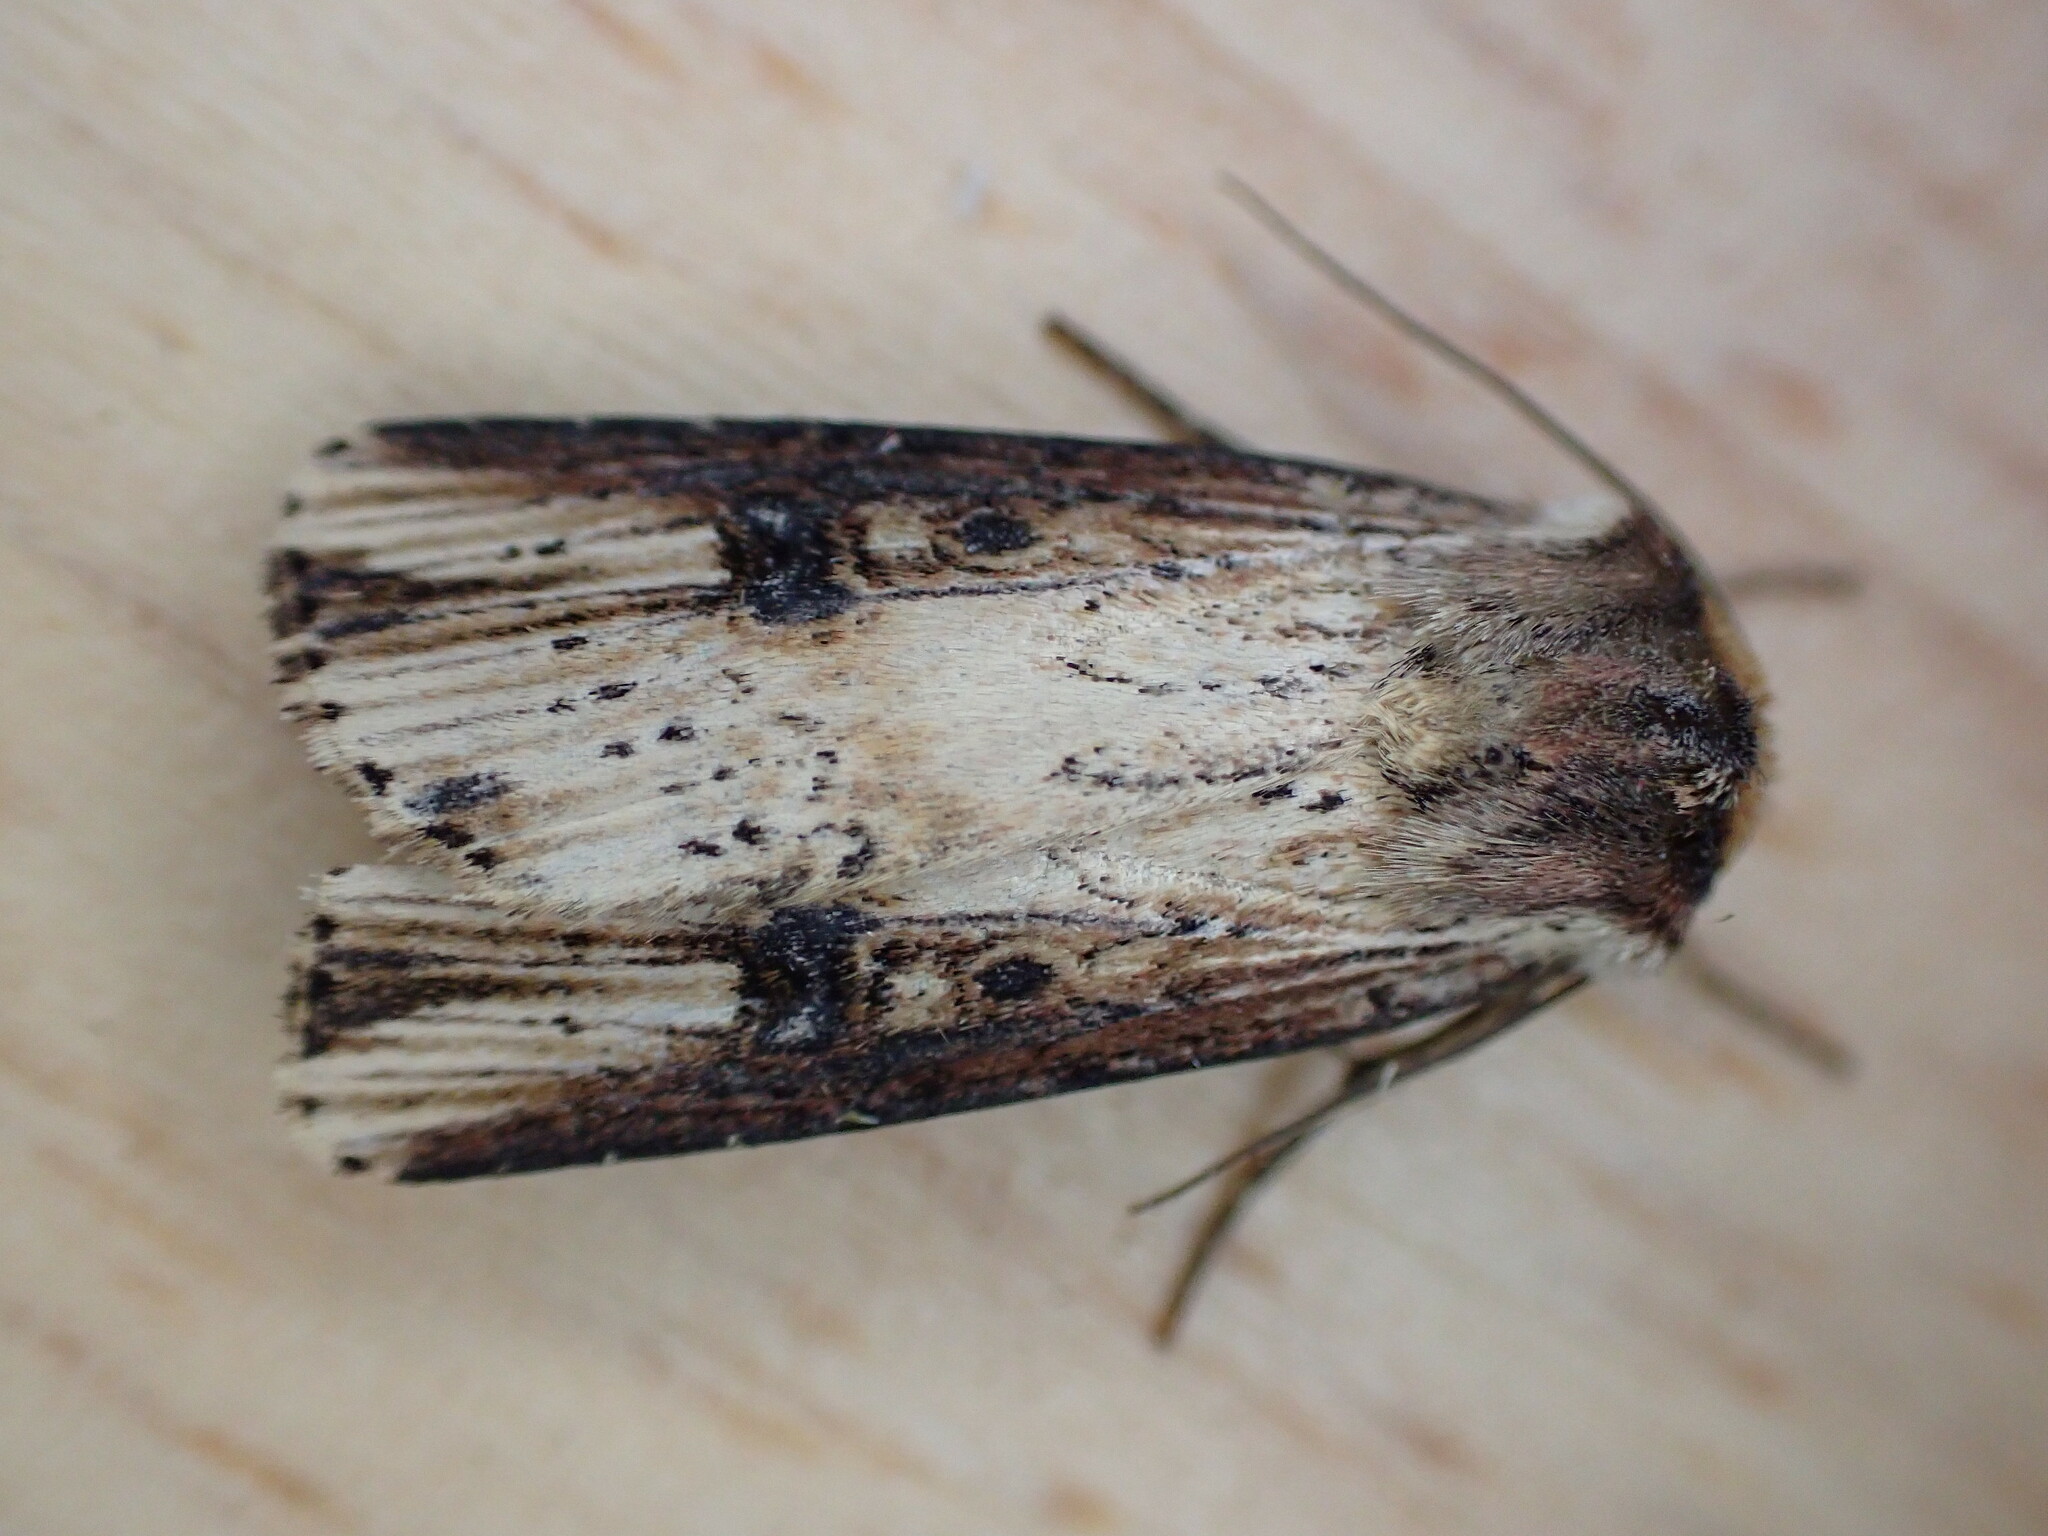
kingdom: Animalia
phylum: Arthropoda
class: Insecta
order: Lepidoptera
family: Noctuidae
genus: Axylia
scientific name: Axylia putris
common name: Flame
